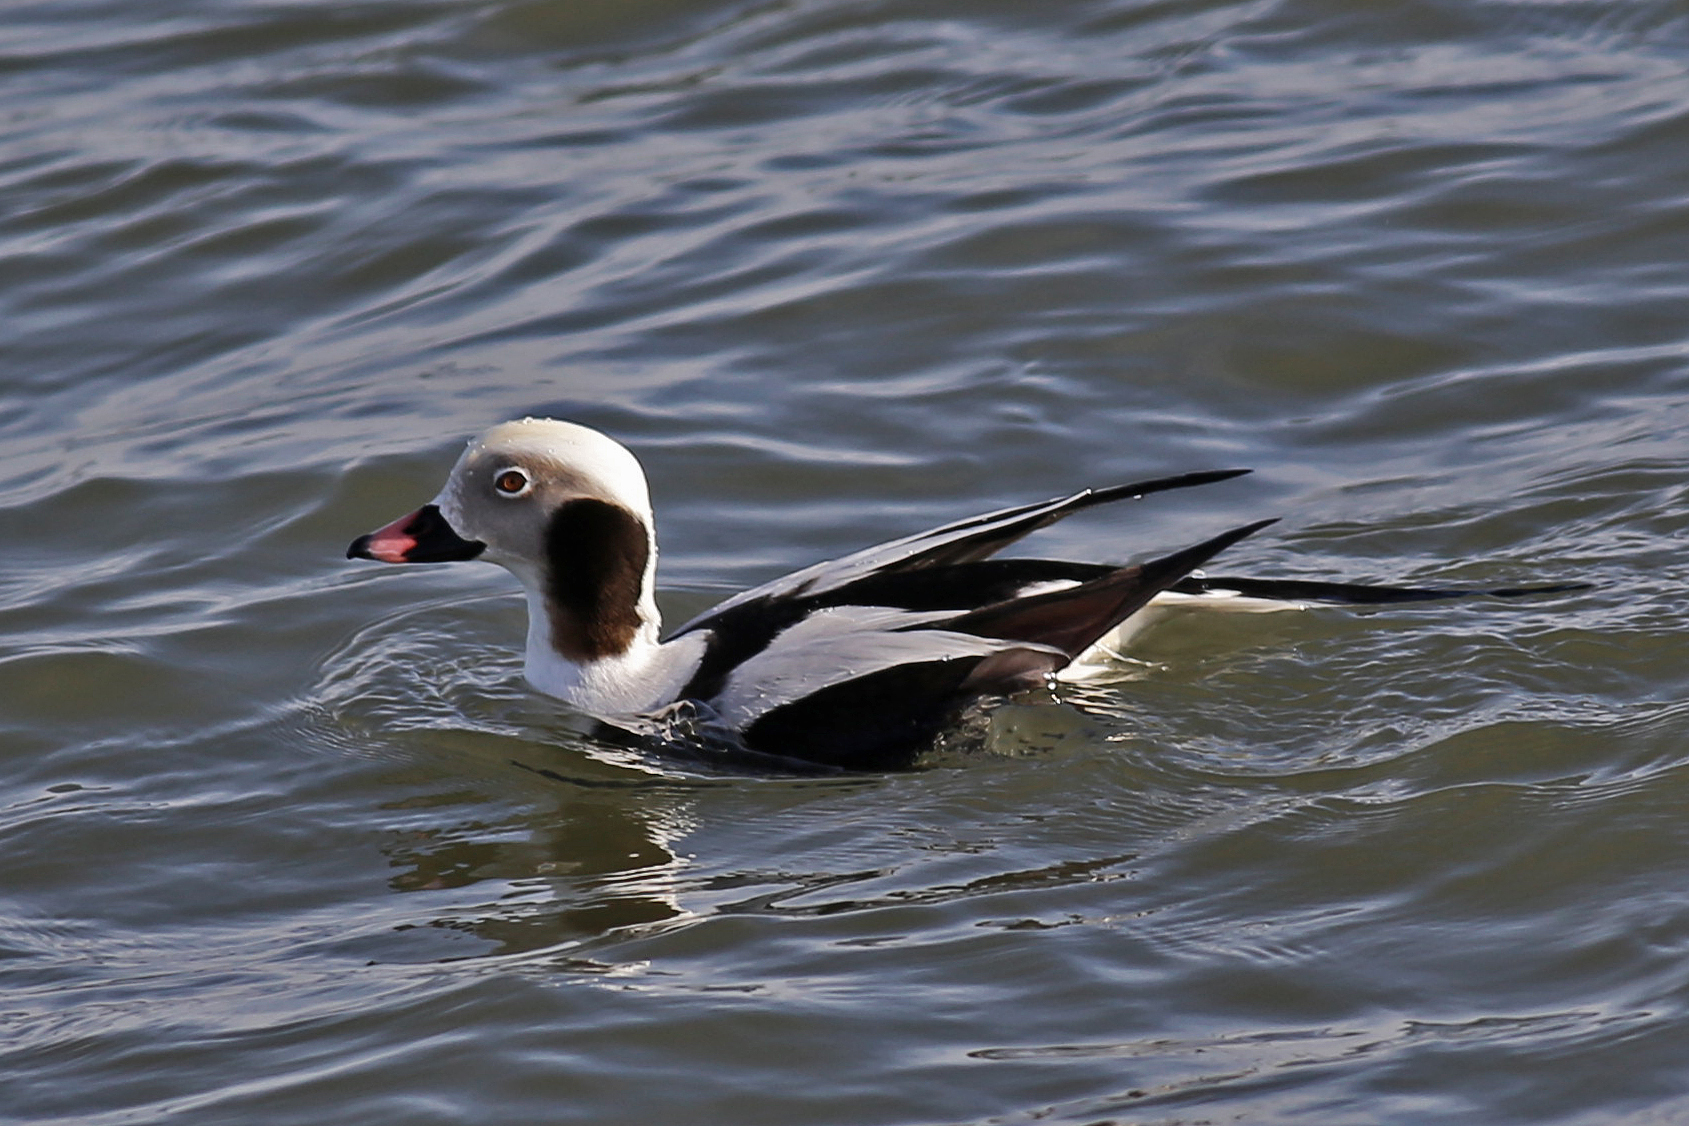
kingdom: Animalia
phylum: Chordata
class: Aves
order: Anseriformes
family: Anatidae
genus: Clangula
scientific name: Clangula hyemalis
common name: Long-tailed duck
